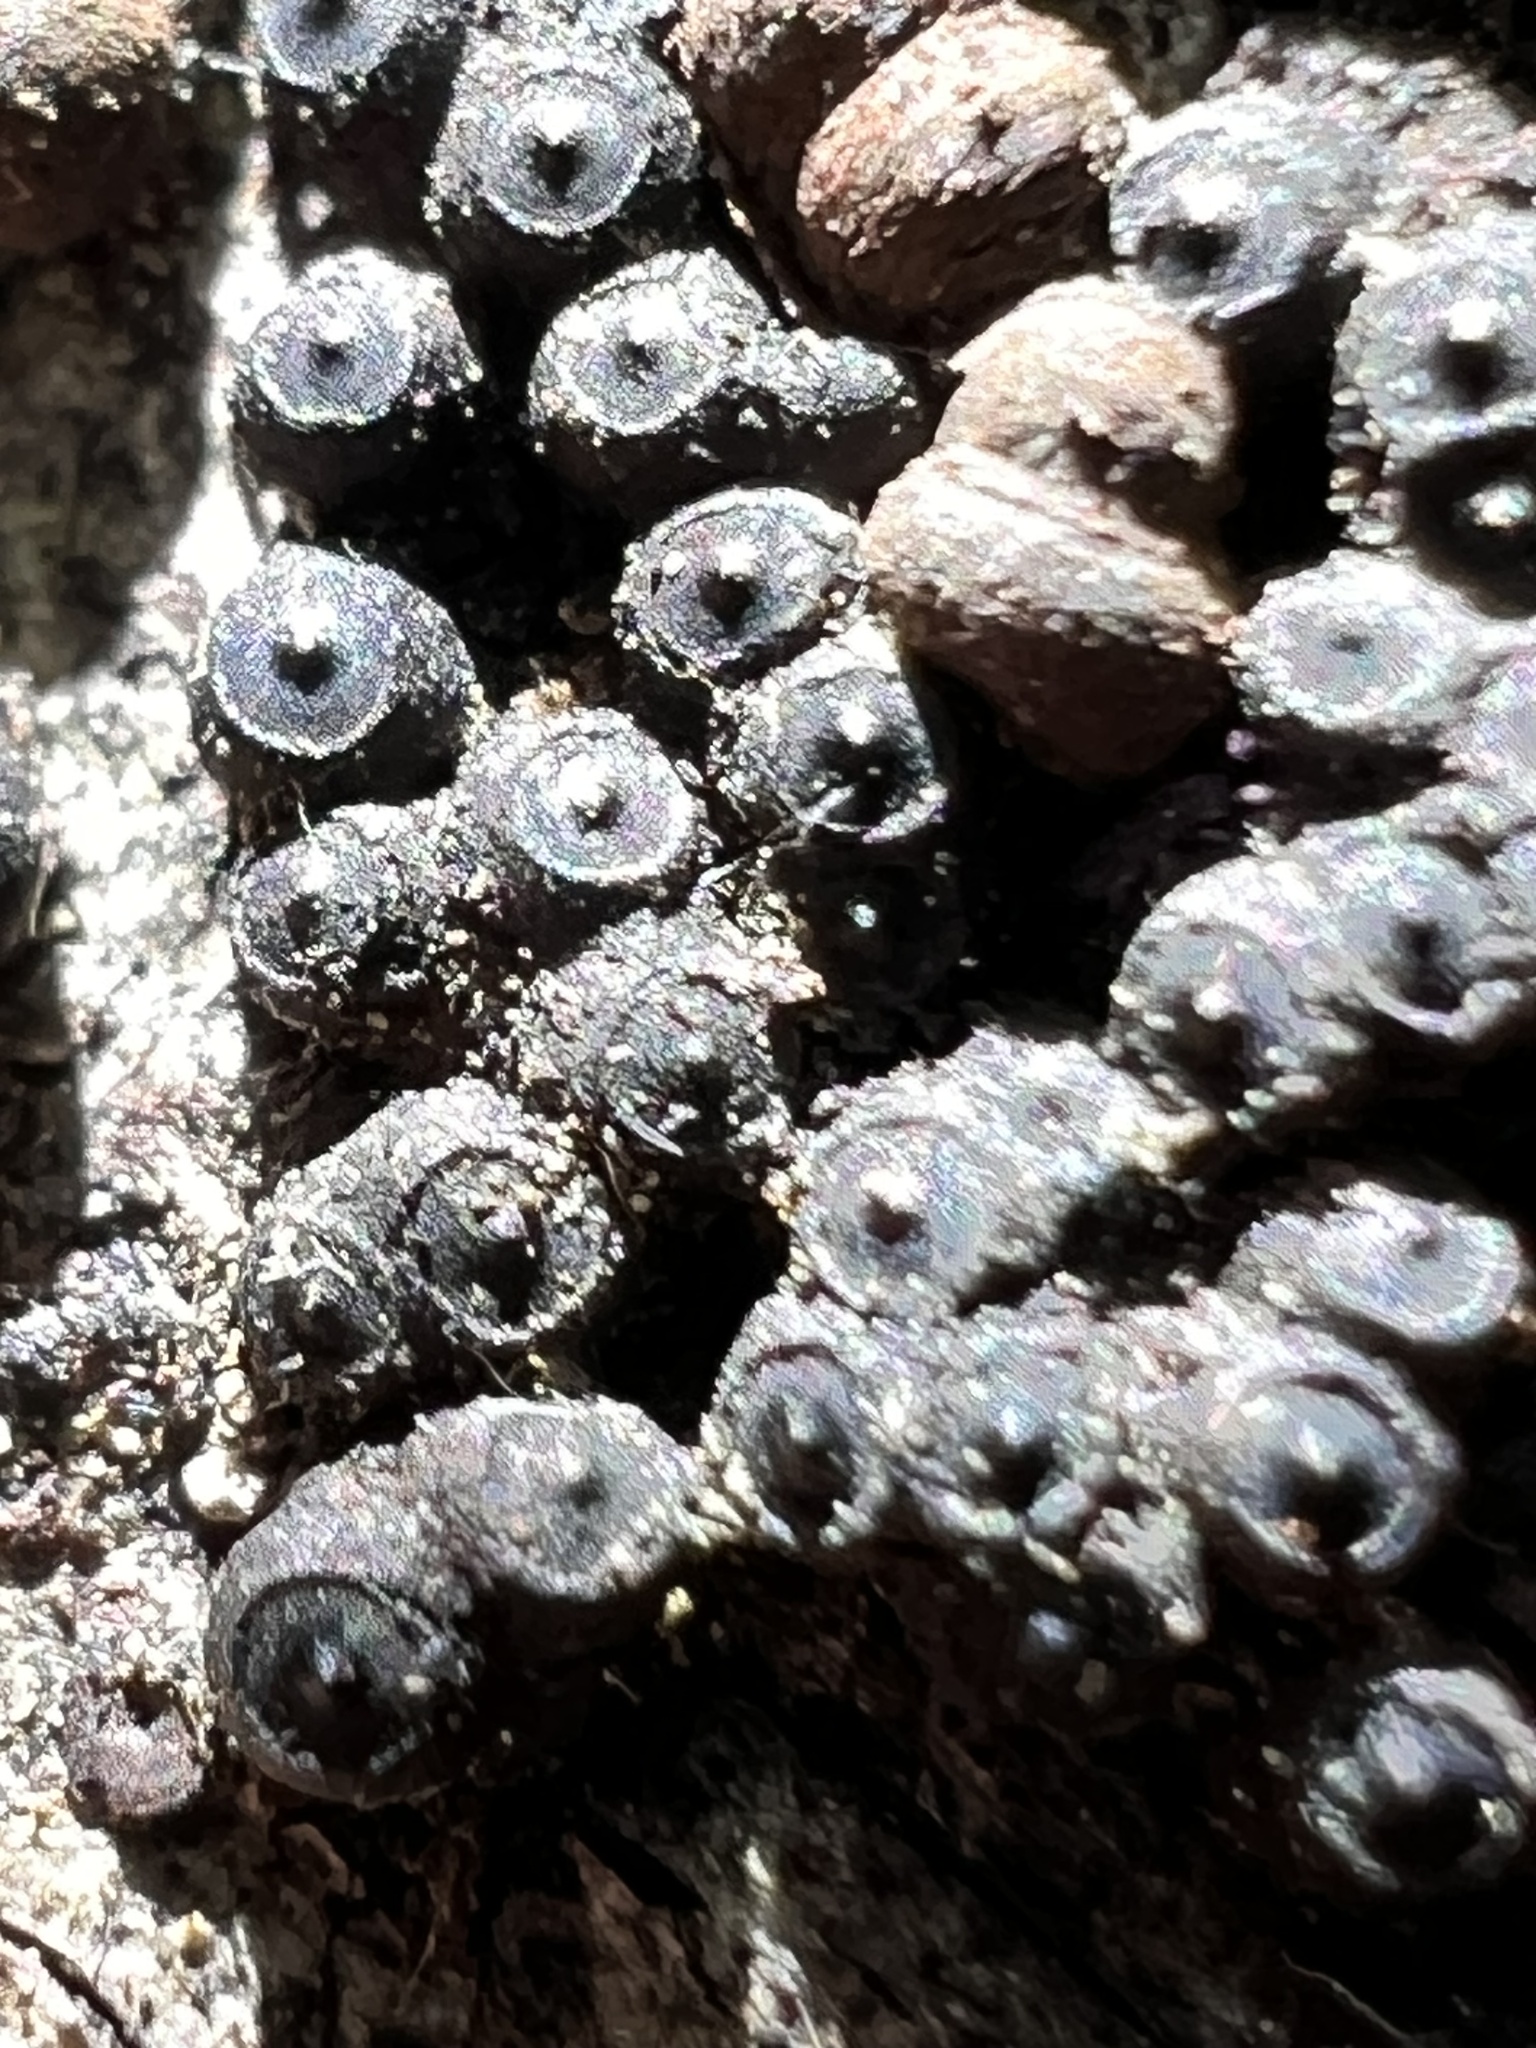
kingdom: Fungi
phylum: Ascomycota
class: Sordariomycetes
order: Xylariales
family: Hypoxylaceae
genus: Annulohypoxylon
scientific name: Annulohypoxylon bovei
